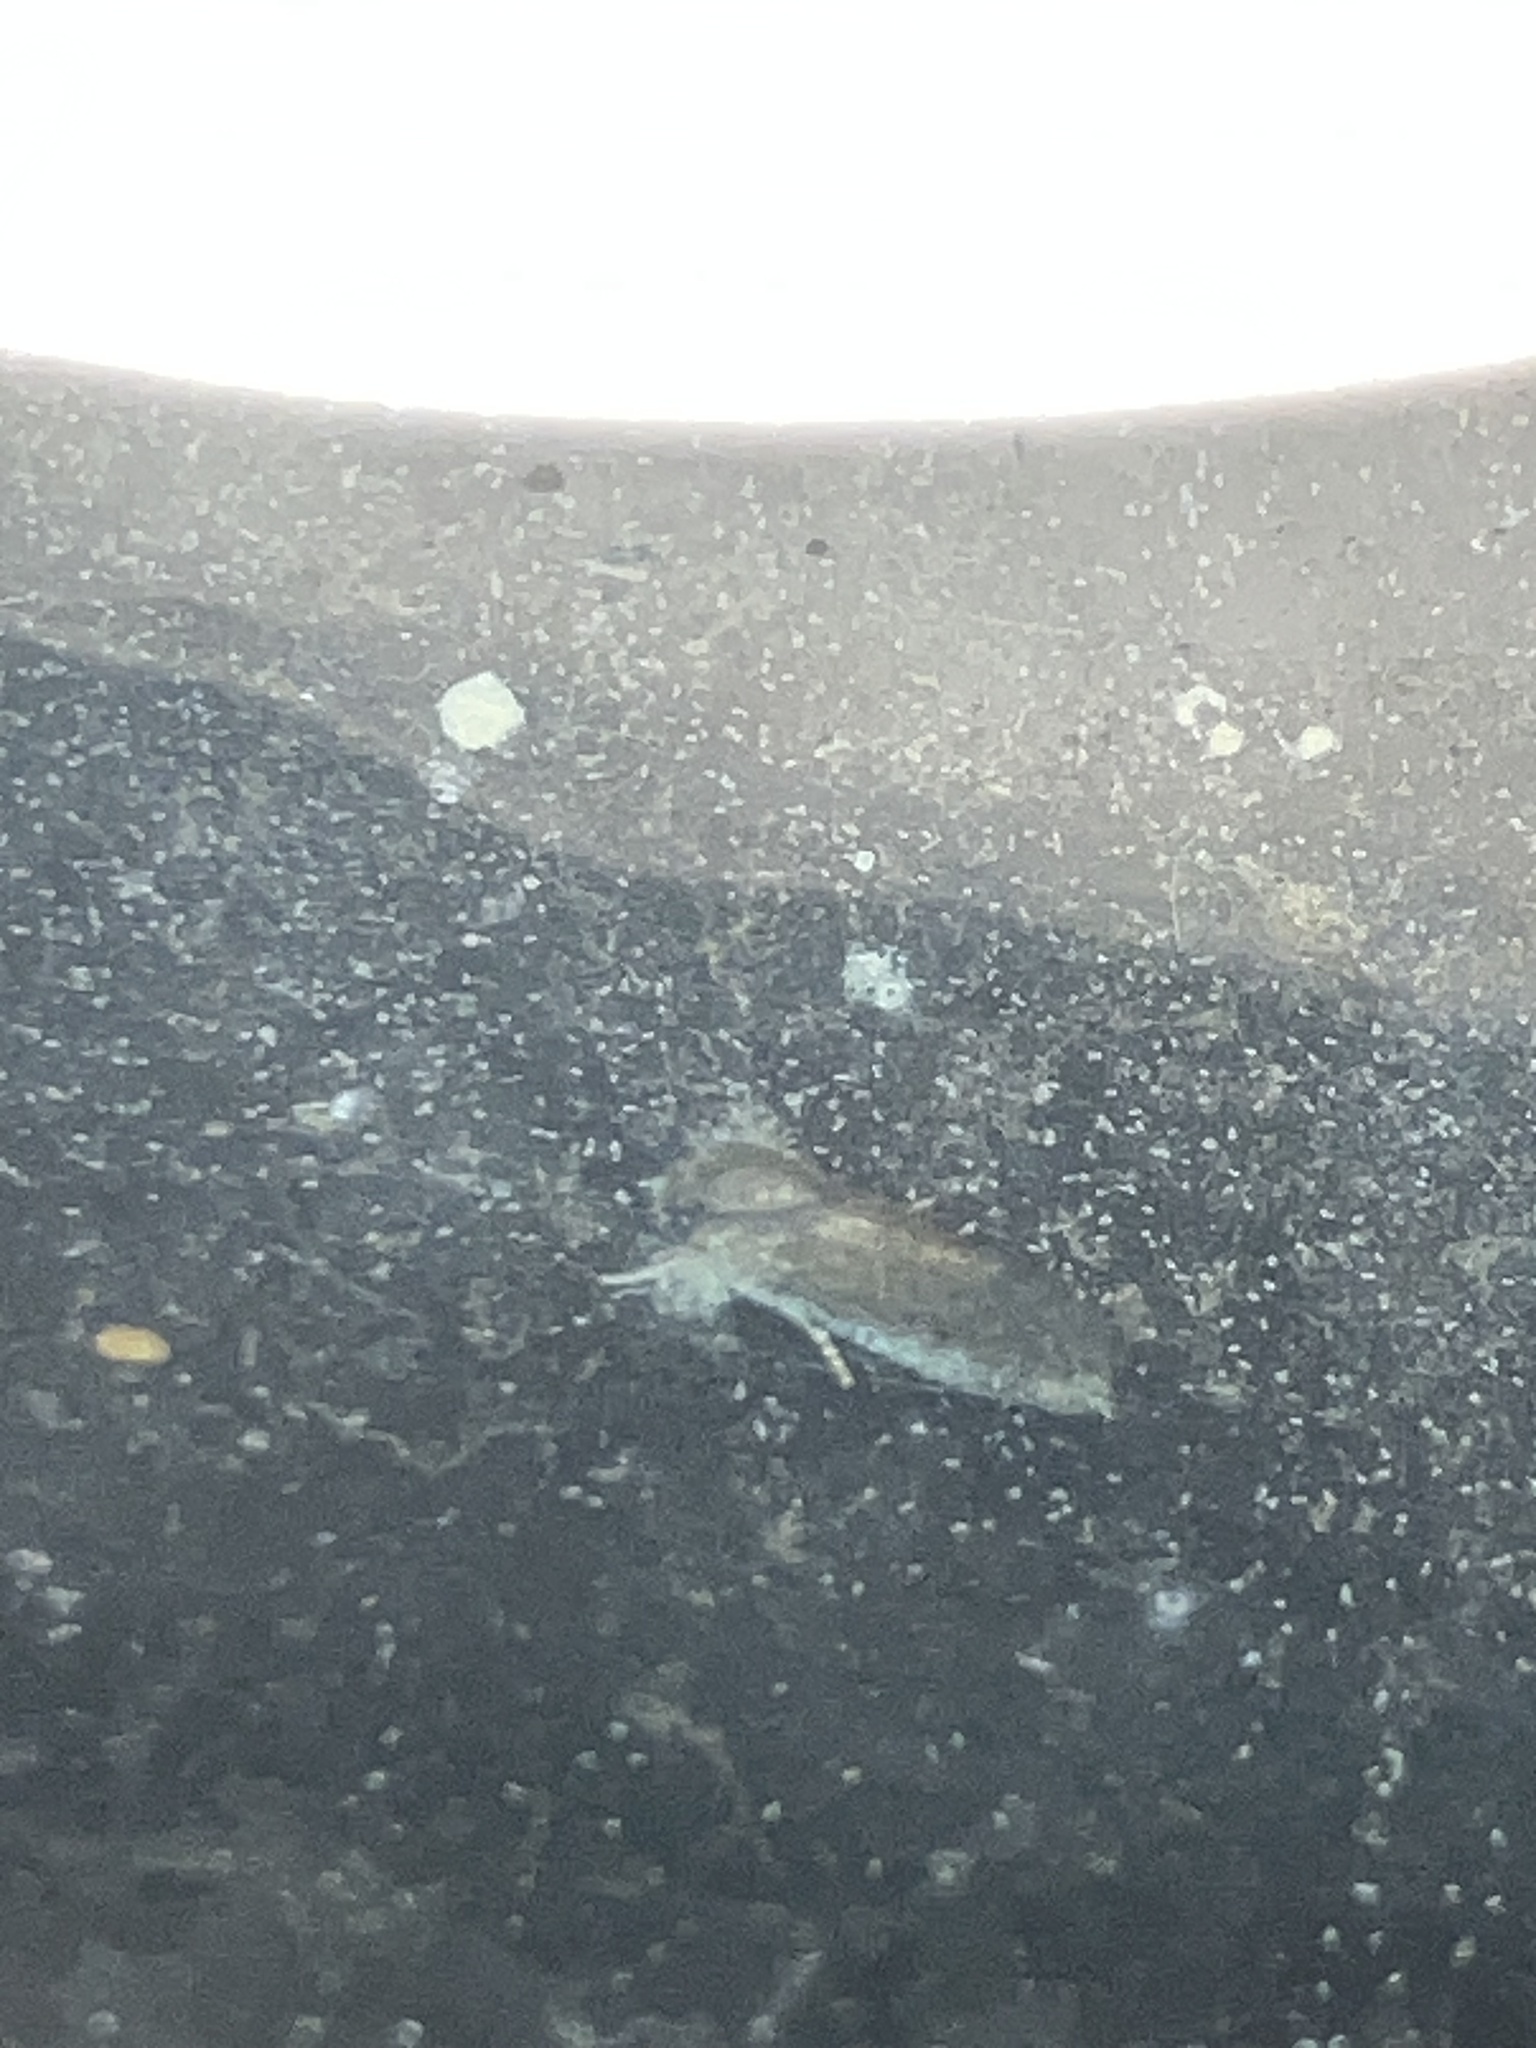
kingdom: Animalia
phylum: Arthropoda
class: Insecta
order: Lepidoptera
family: Tineidae
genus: Acrolophus
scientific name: Acrolophus heppneri
